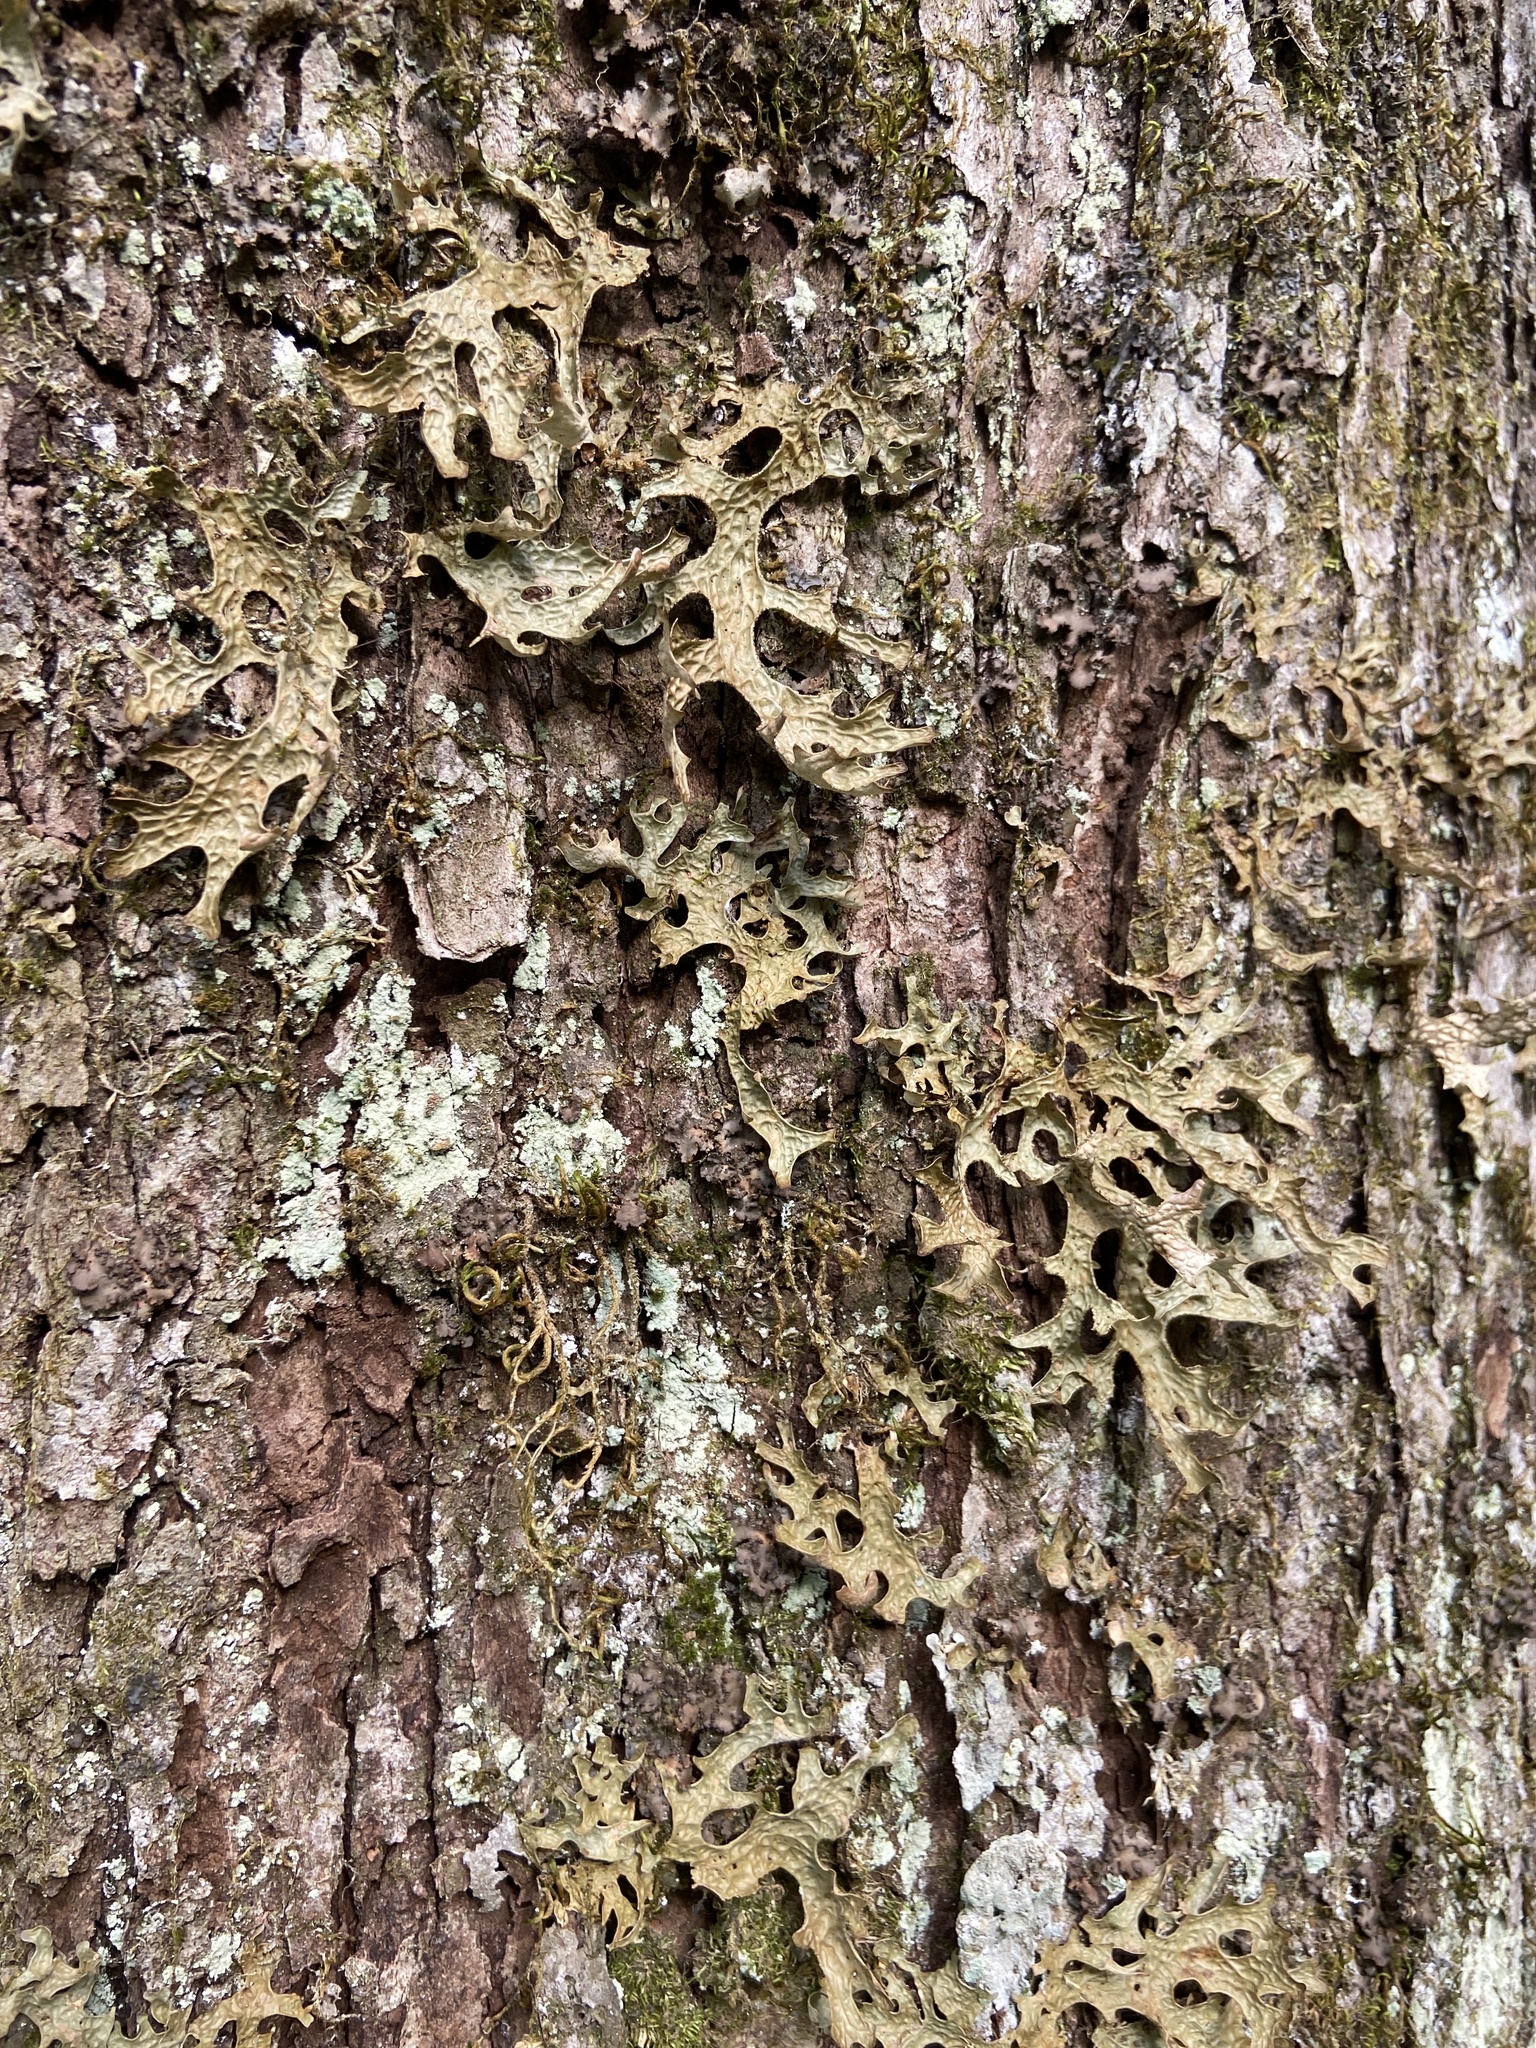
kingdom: Fungi
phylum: Ascomycota
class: Lecanoromycetes
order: Peltigerales
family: Lobariaceae
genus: Lobaria
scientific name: Lobaria pulmonaria
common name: Lungwort
